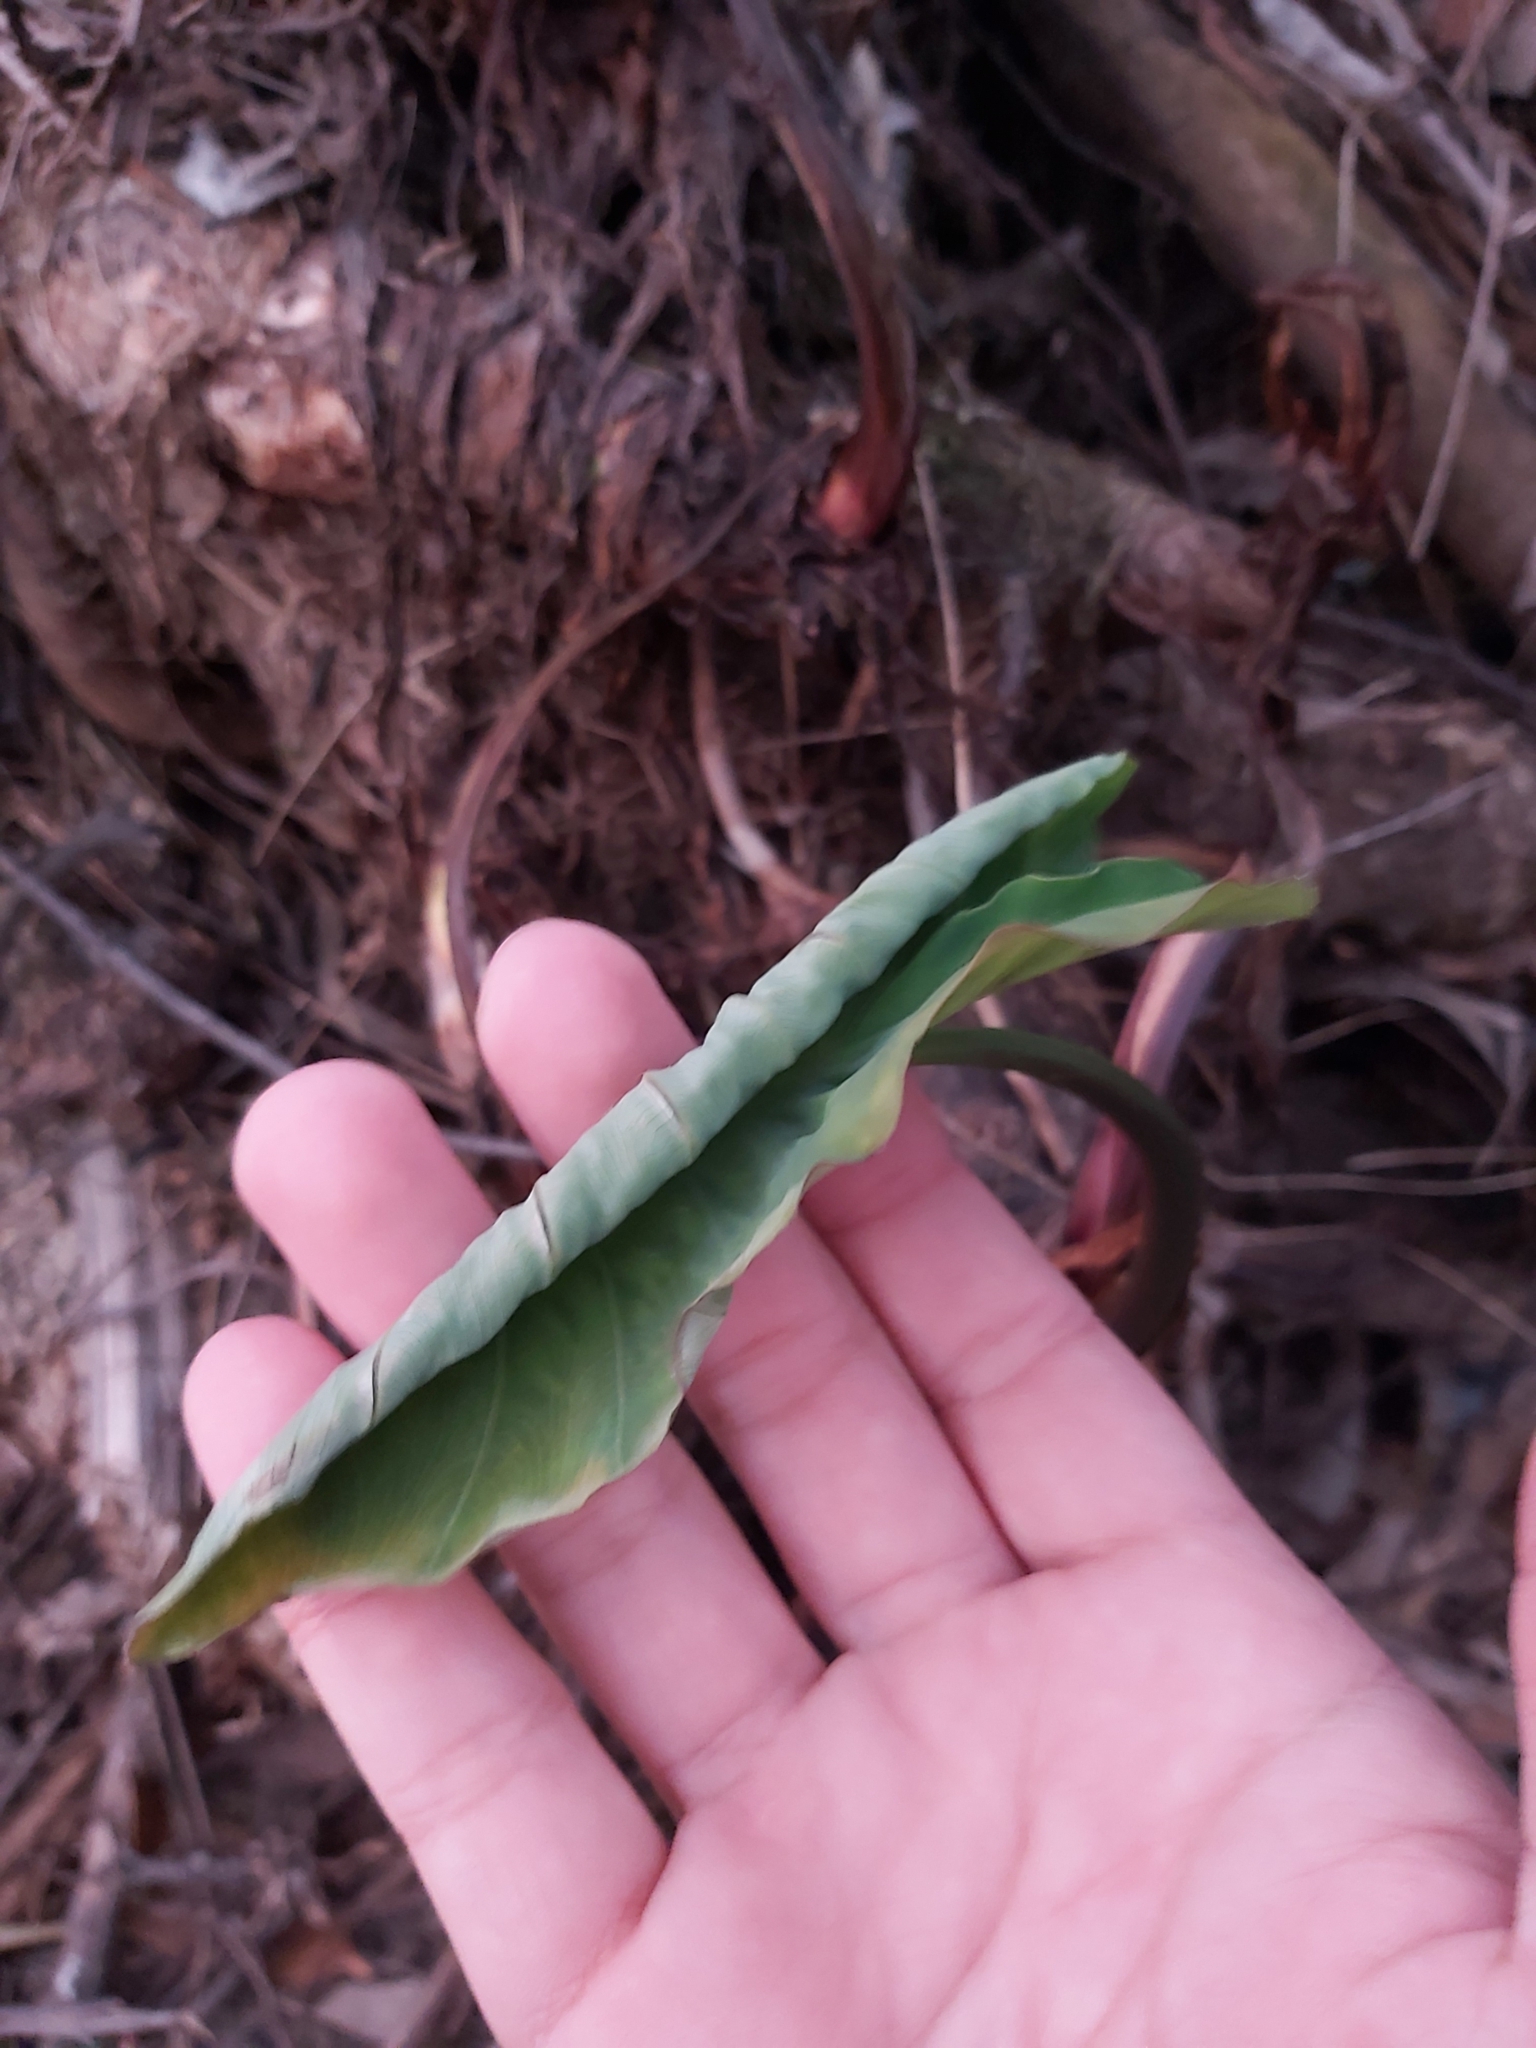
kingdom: Plantae
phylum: Tracheophyta
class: Liliopsida
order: Alismatales
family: Araceae
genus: Colocasia
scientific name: Colocasia esculenta
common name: Taro
